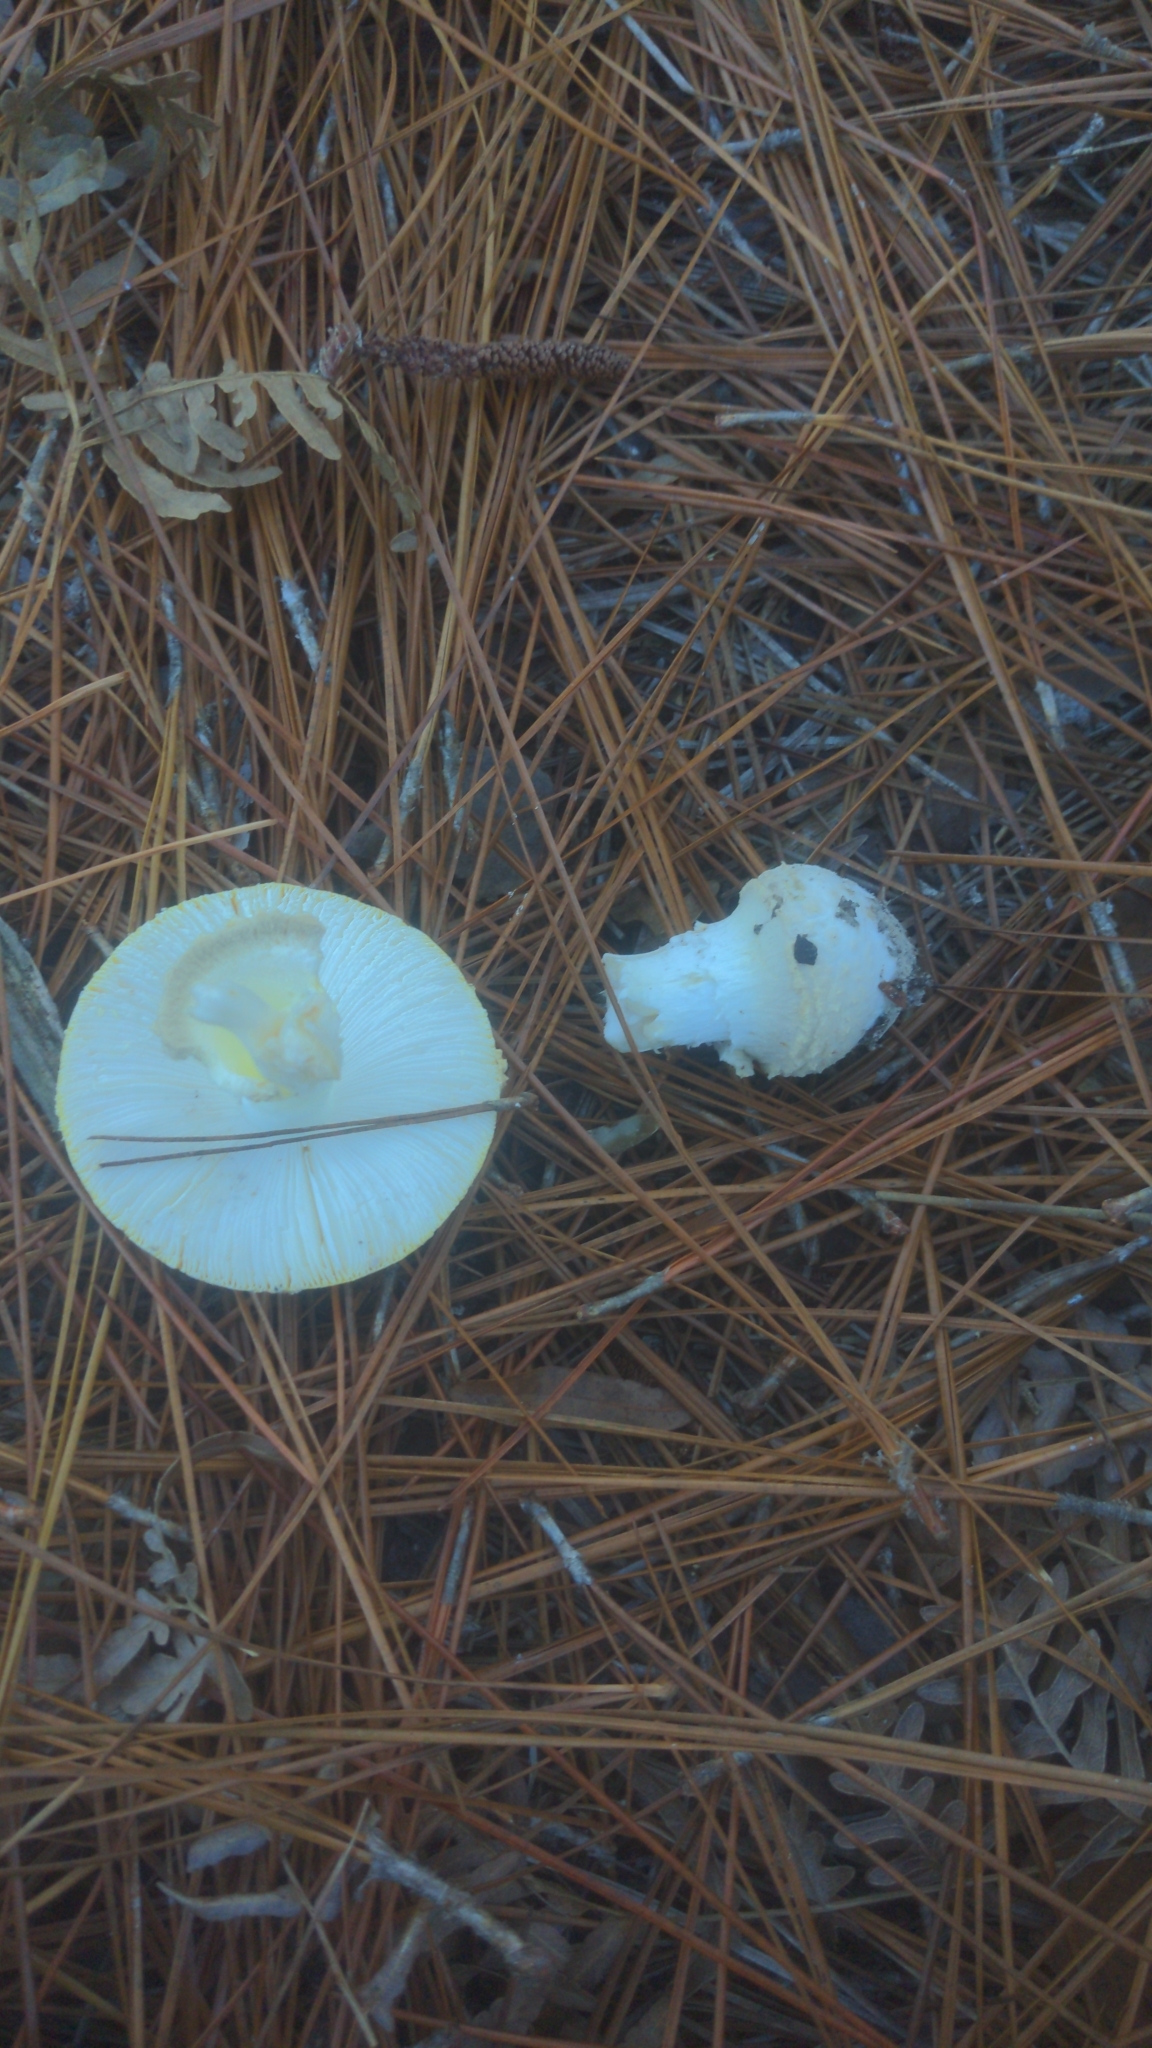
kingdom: Fungi
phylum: Basidiomycota
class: Agaricomycetes
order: Agaricales
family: Amanitaceae
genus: Amanita
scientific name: Amanita persicina
